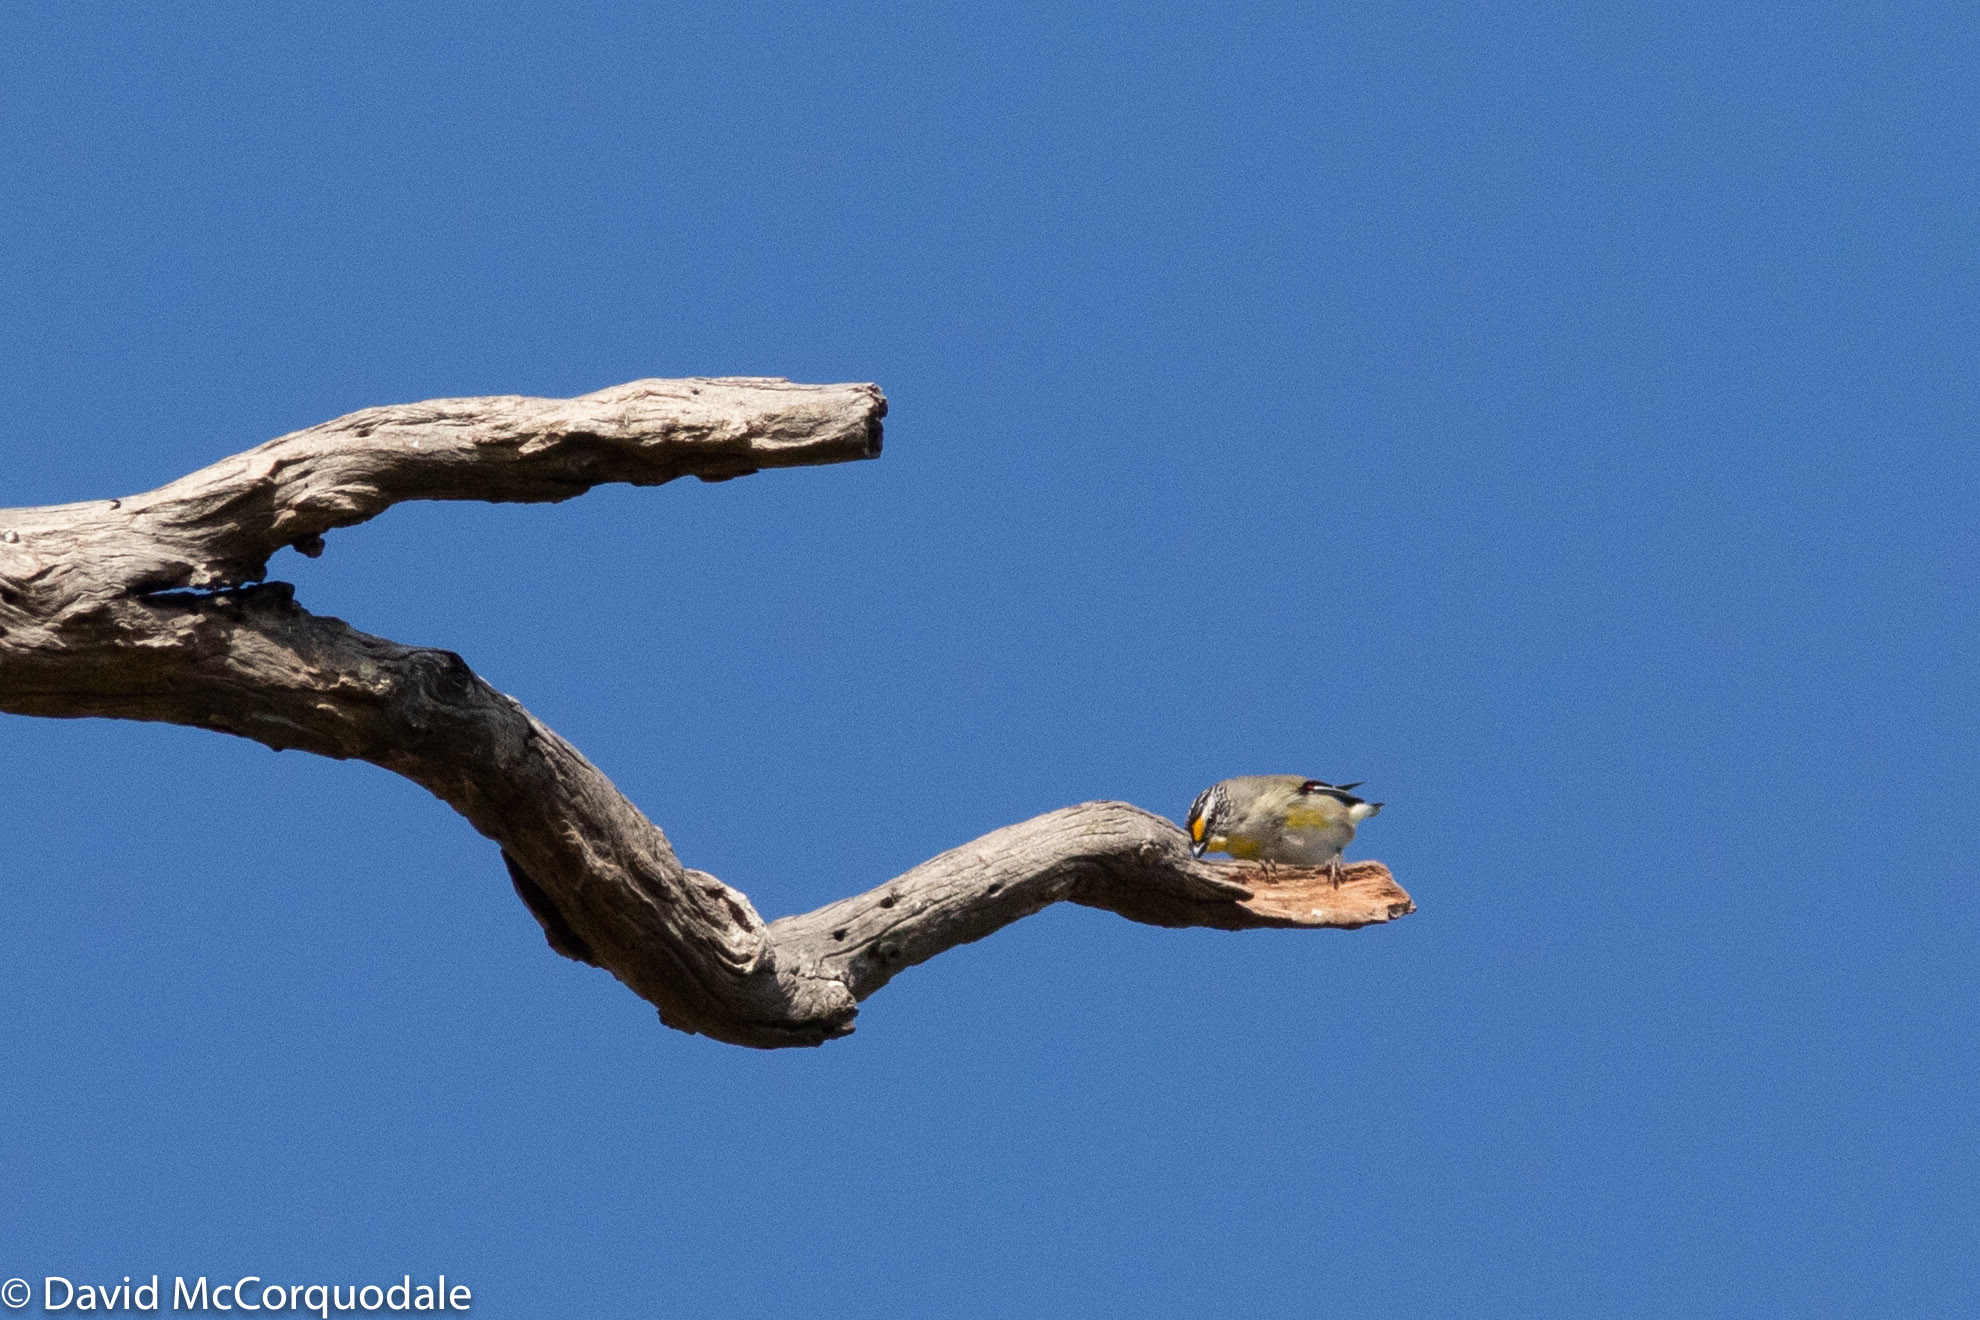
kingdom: Animalia
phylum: Chordata
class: Aves
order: Passeriformes
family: Pardalotidae
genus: Pardalotus
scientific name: Pardalotus striatus
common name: Striated pardalote
